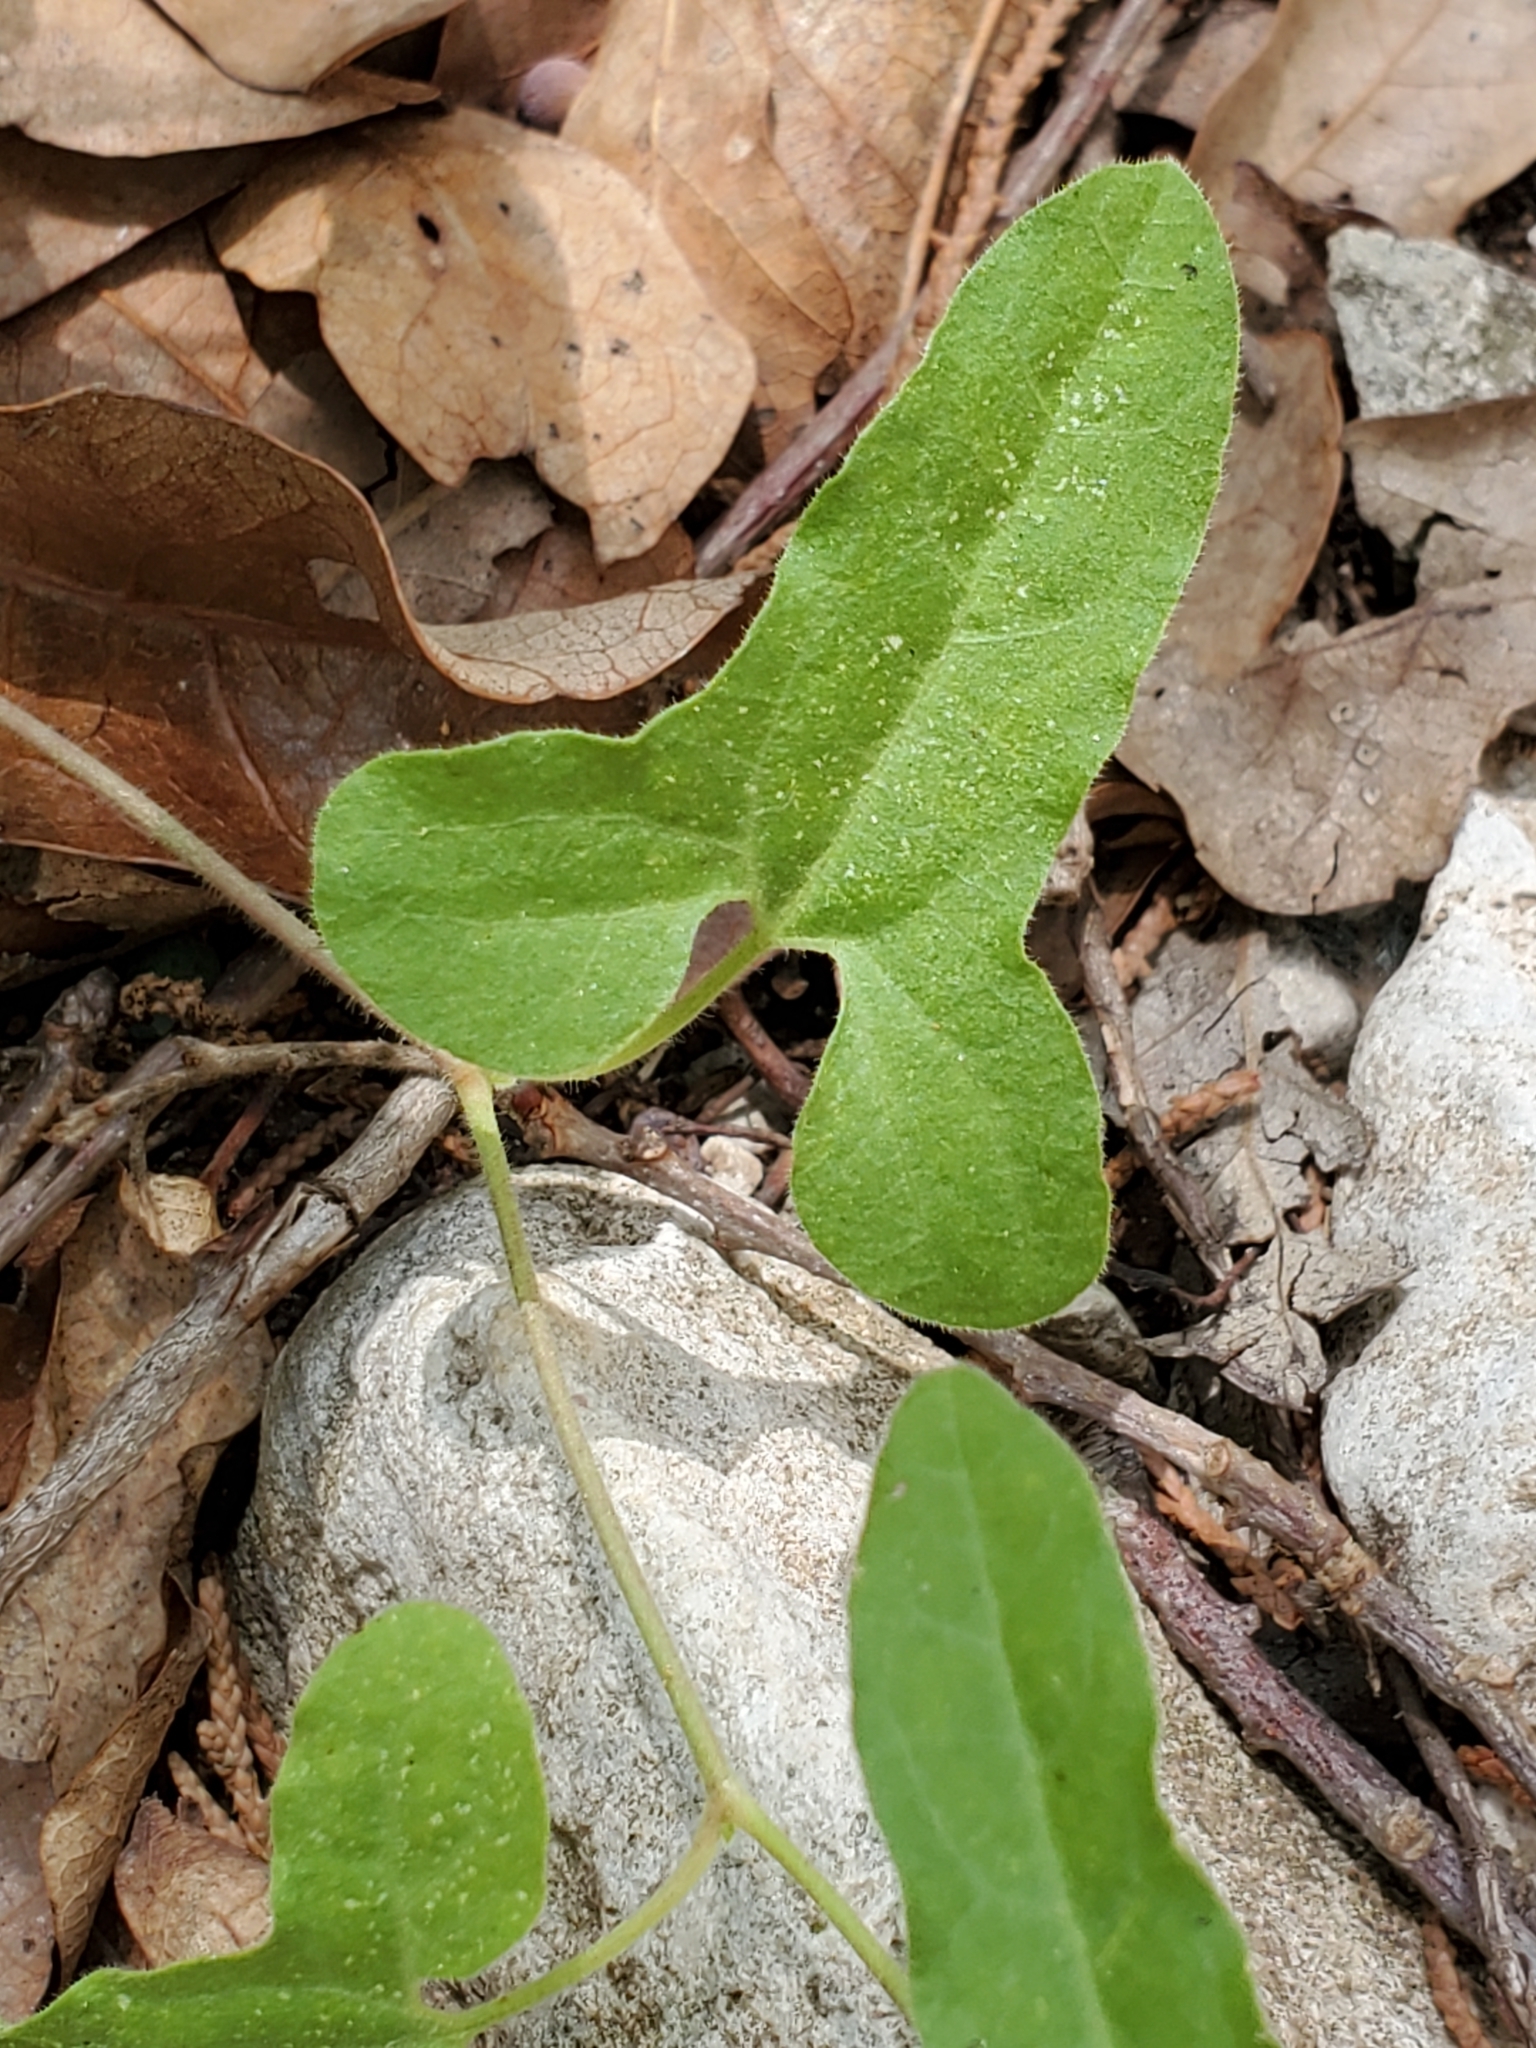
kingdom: Plantae
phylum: Tracheophyta
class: Magnoliopsida
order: Piperales
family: Aristolochiaceae
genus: Aristolochia
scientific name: Aristolochia coryi
